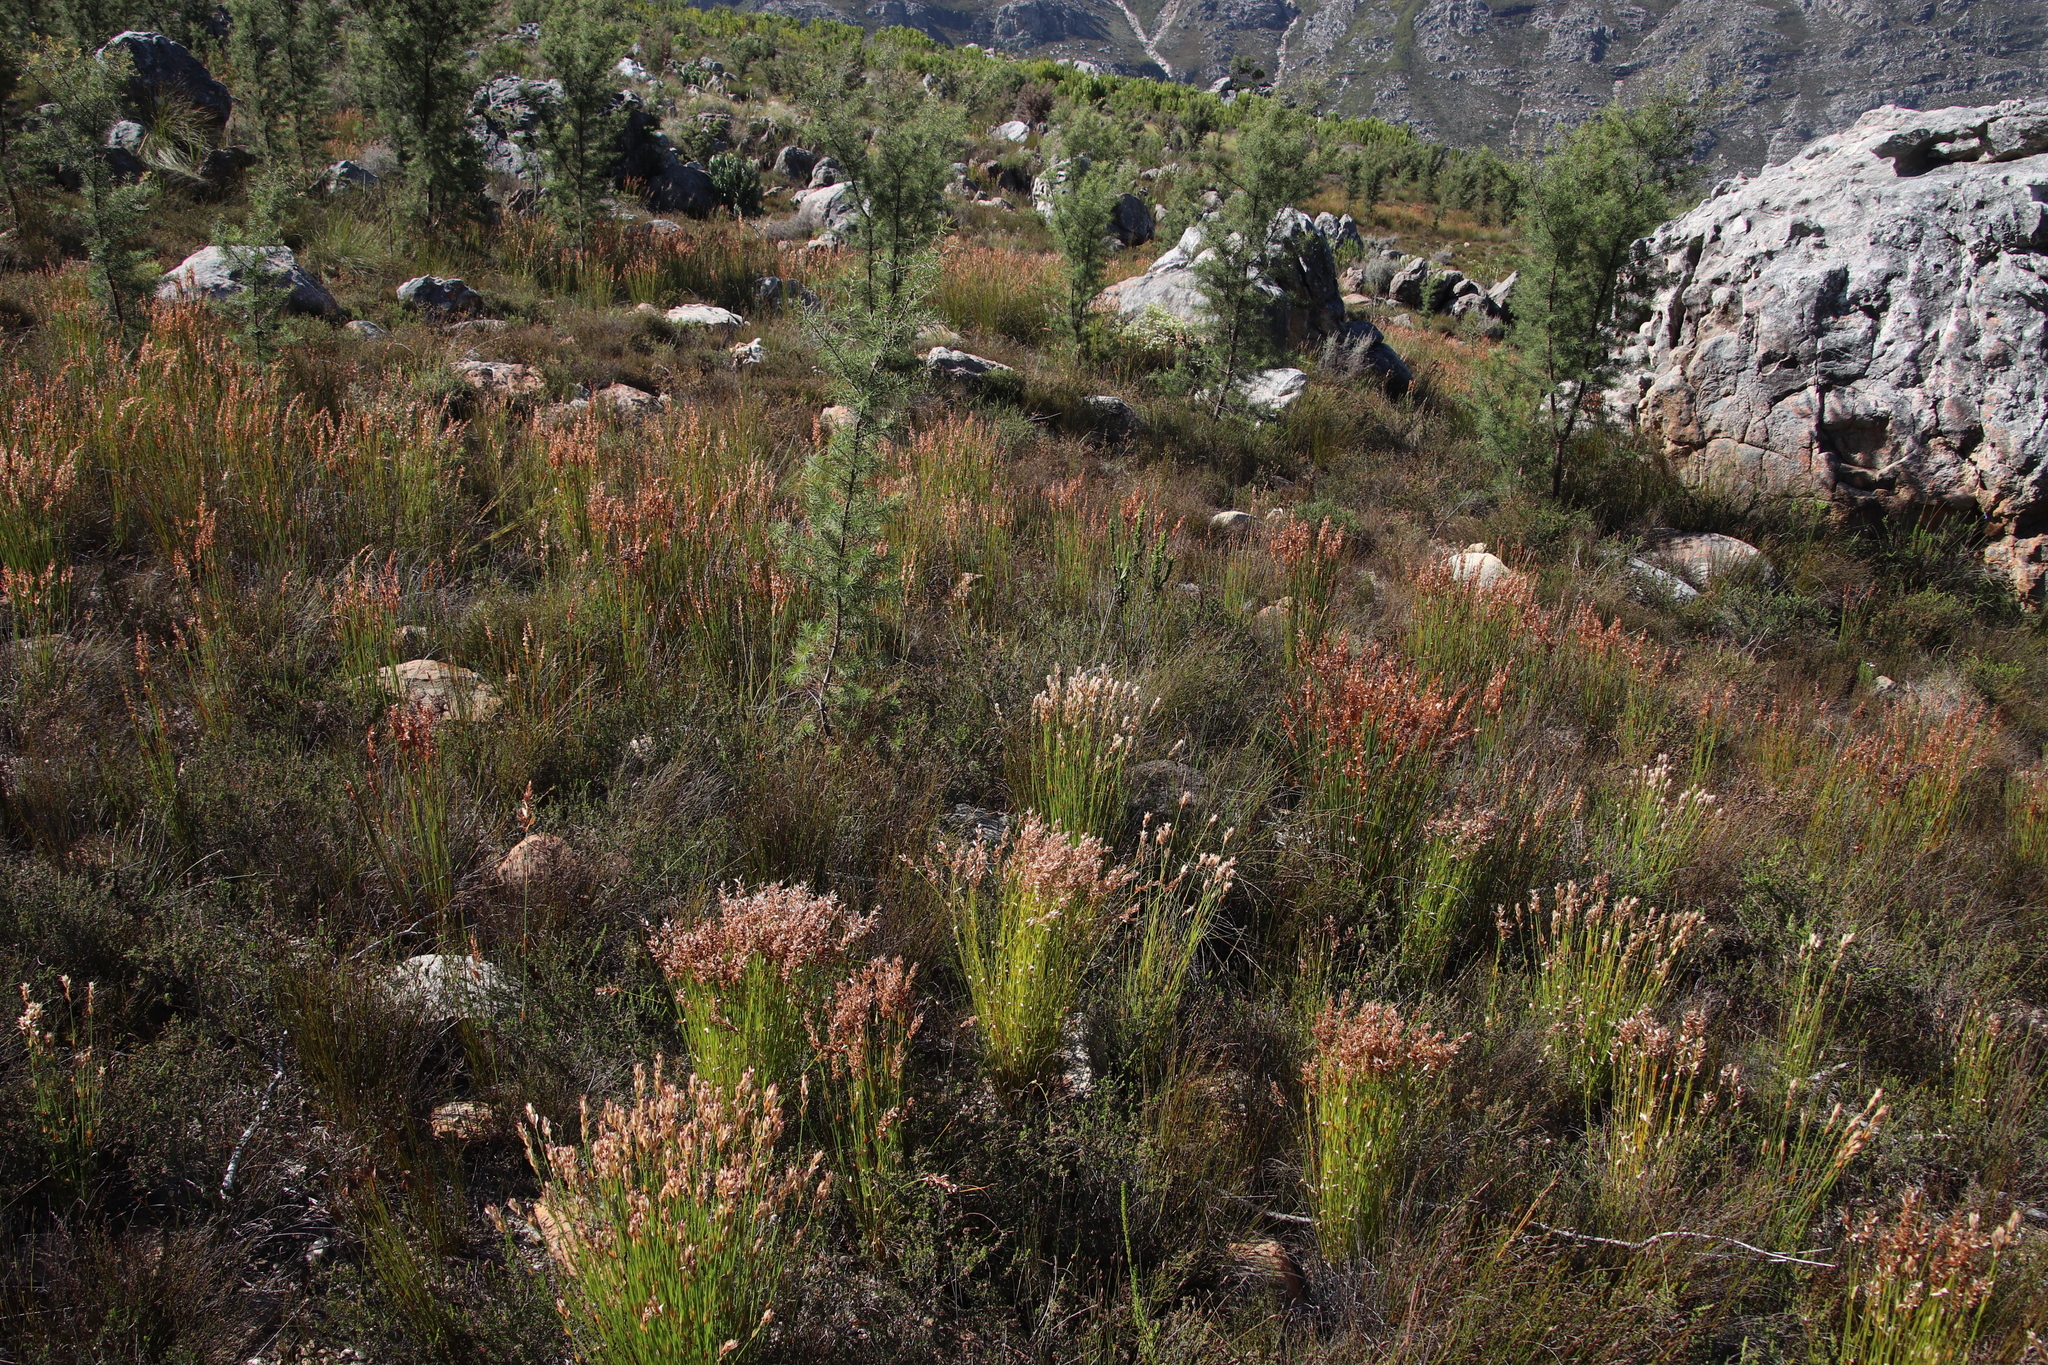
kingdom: Plantae
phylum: Tracheophyta
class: Liliopsida
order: Poales
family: Restionaceae
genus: Elegia
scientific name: Elegia filacea
